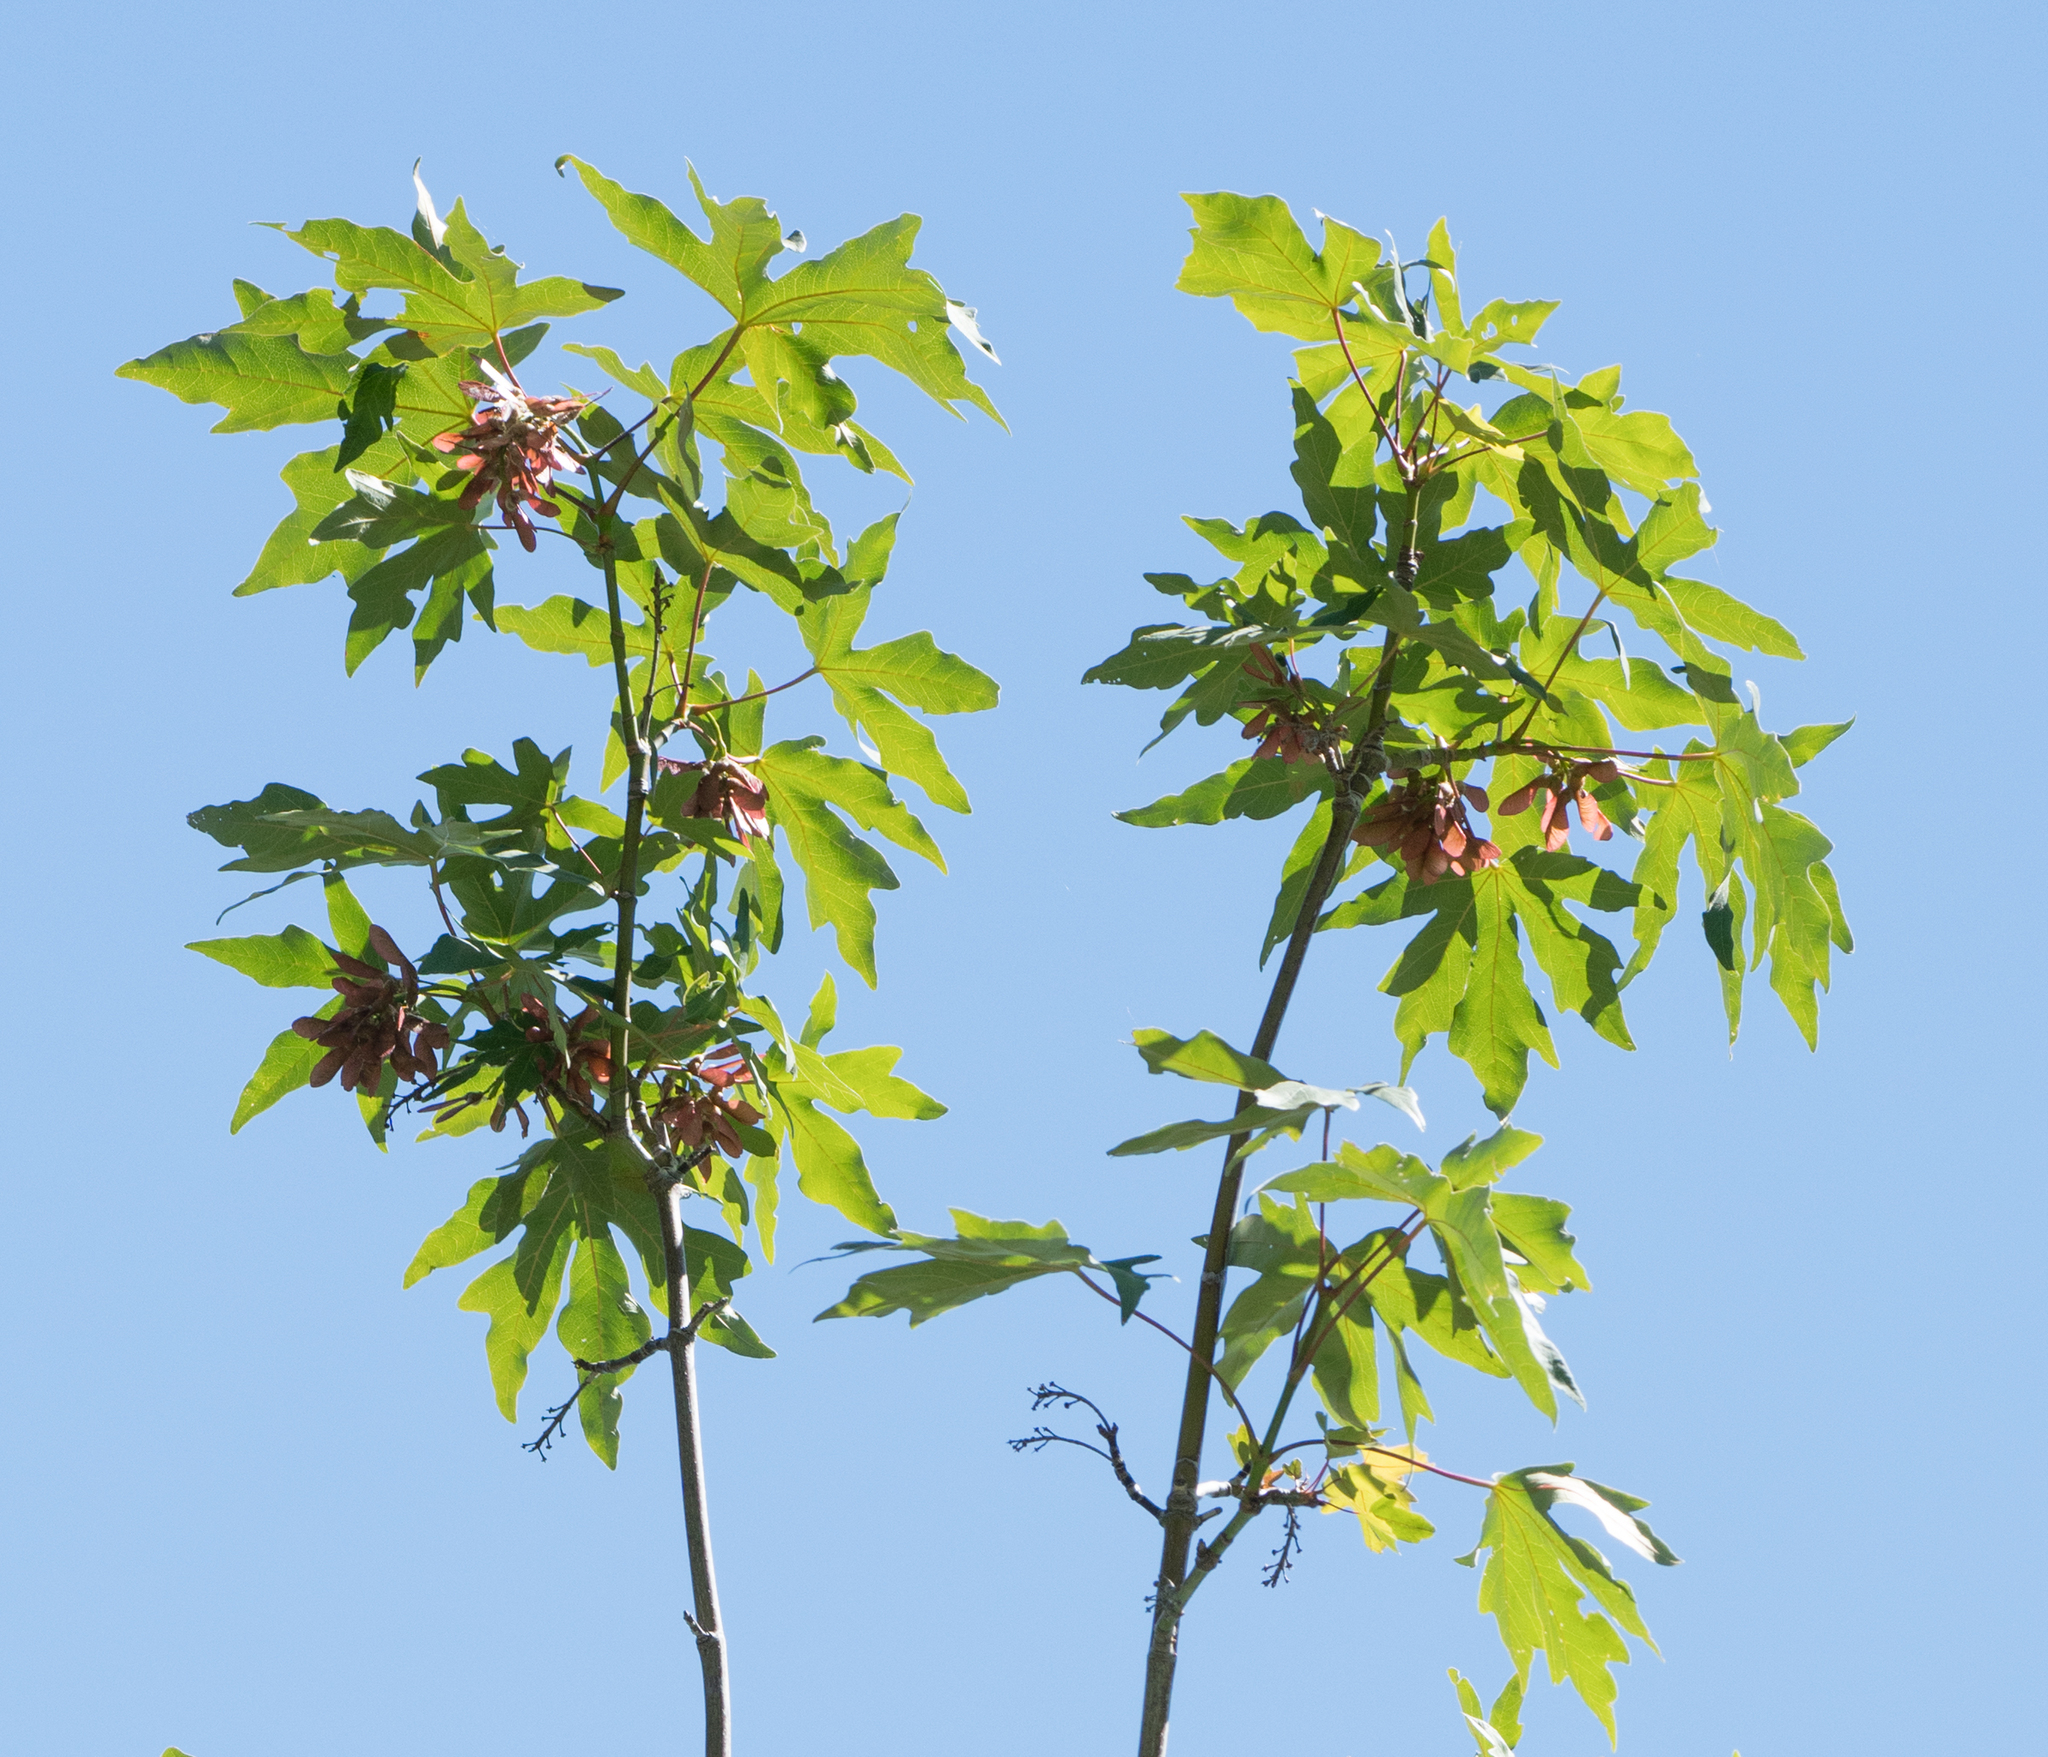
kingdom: Plantae
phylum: Tracheophyta
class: Magnoliopsida
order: Sapindales
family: Sapindaceae
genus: Acer
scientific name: Acer macrophyllum
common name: Oregon maple
